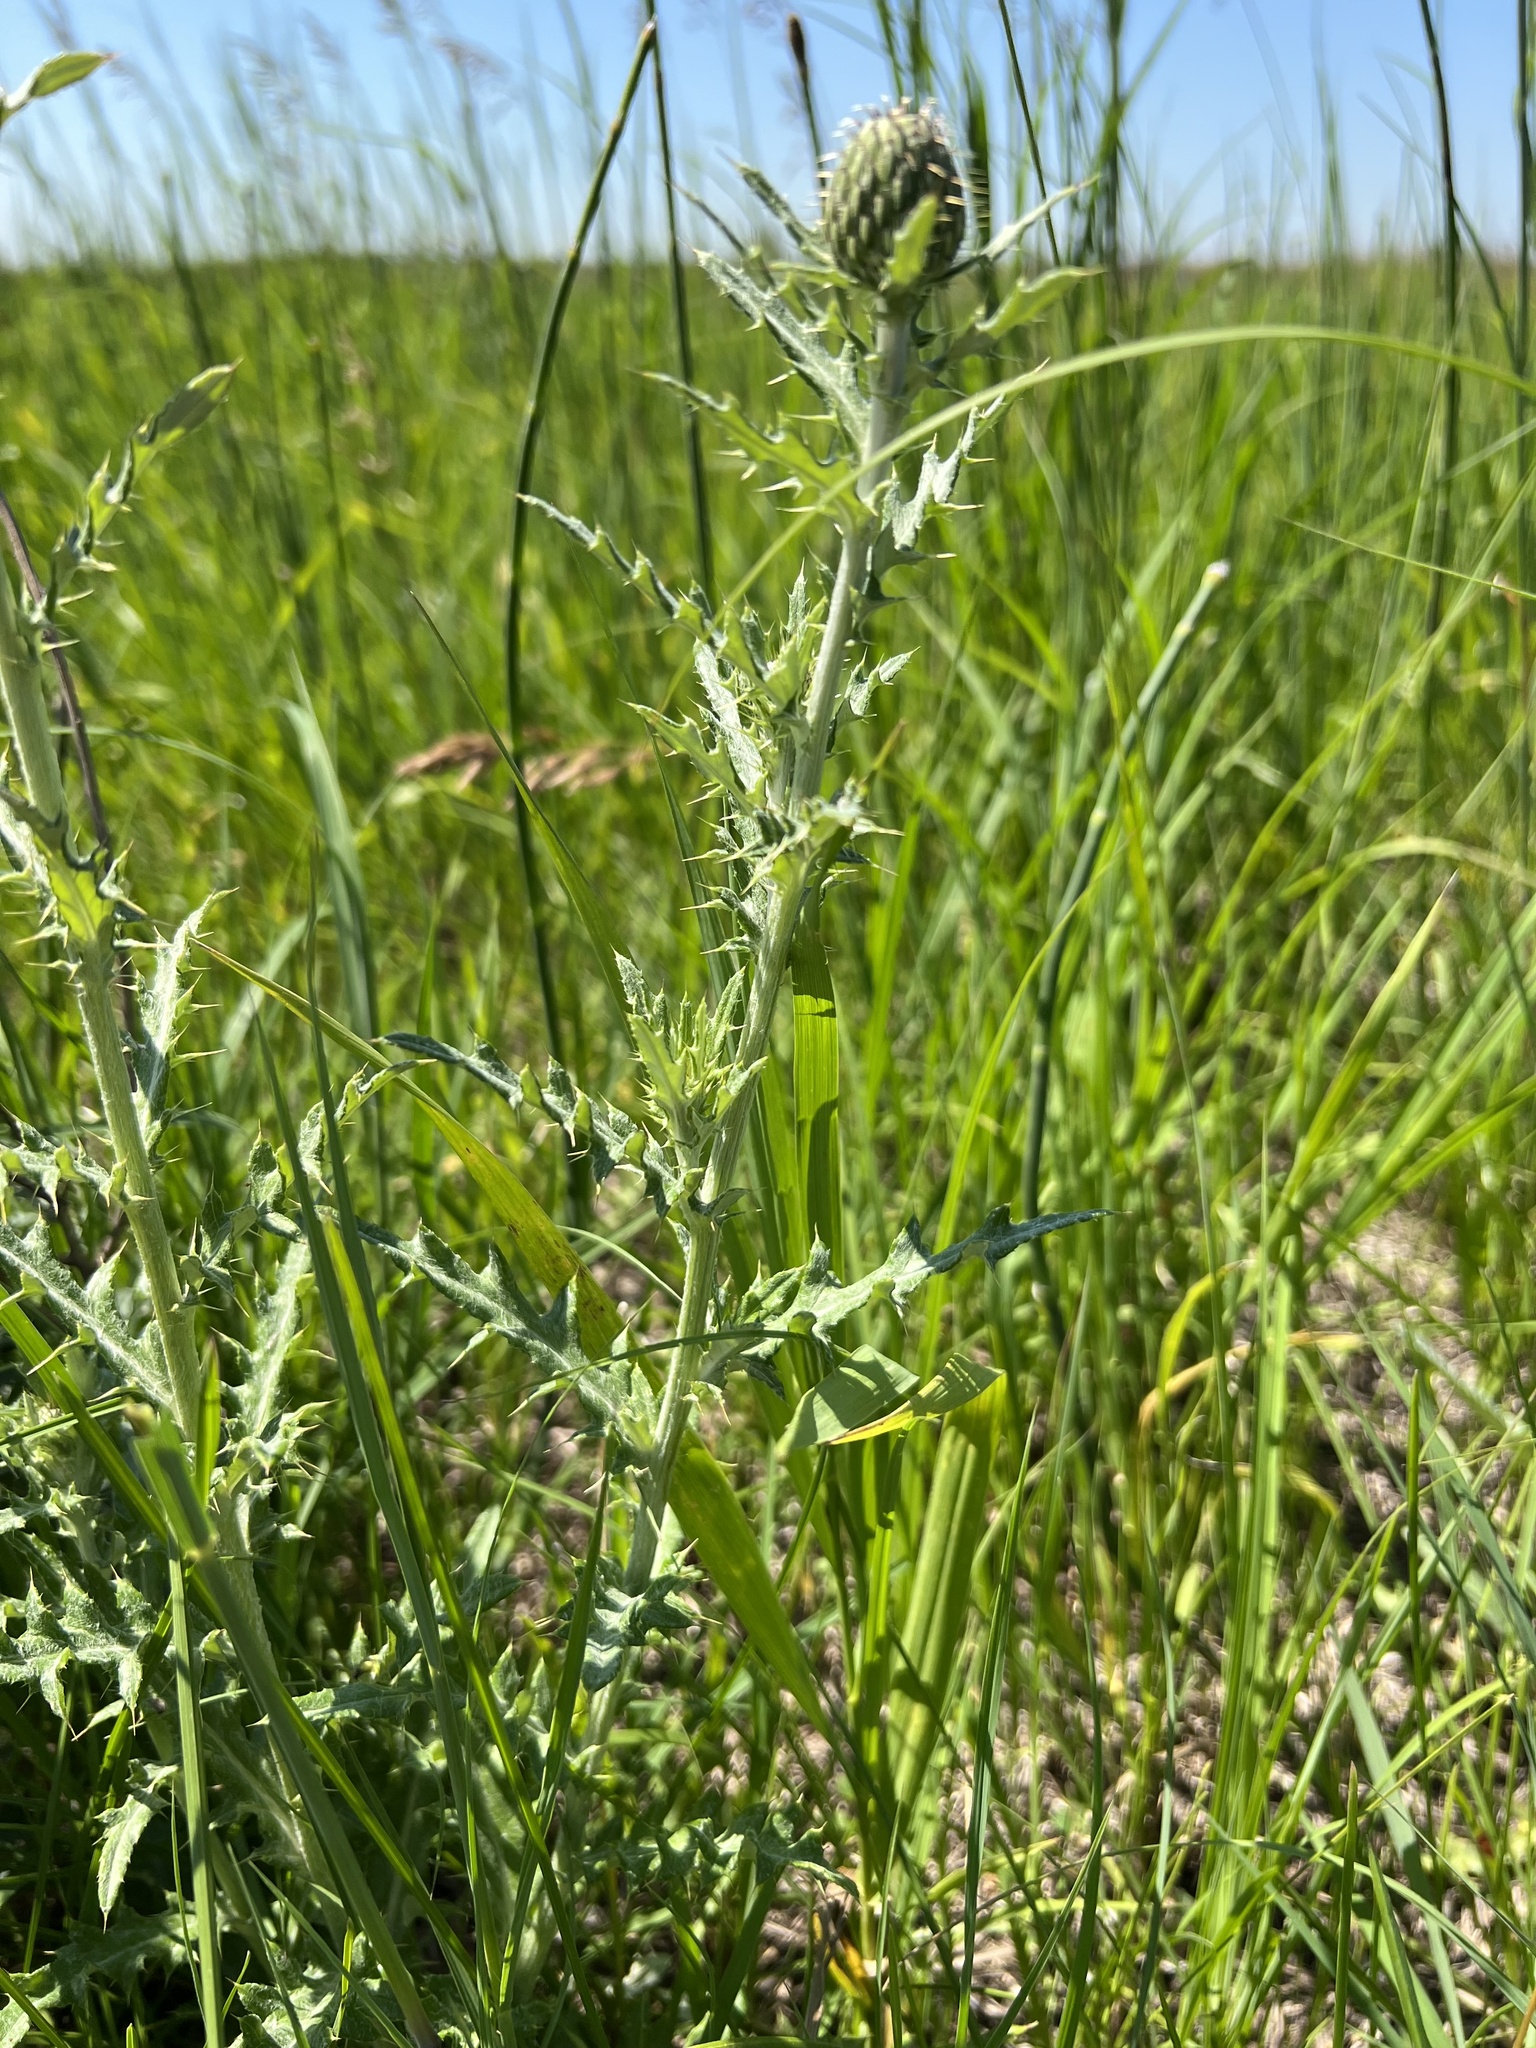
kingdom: Plantae
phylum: Tracheophyta
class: Magnoliopsida
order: Asterales
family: Asteraceae
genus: Cirsium
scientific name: Cirsium flodmanii
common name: Flodman's thistle
